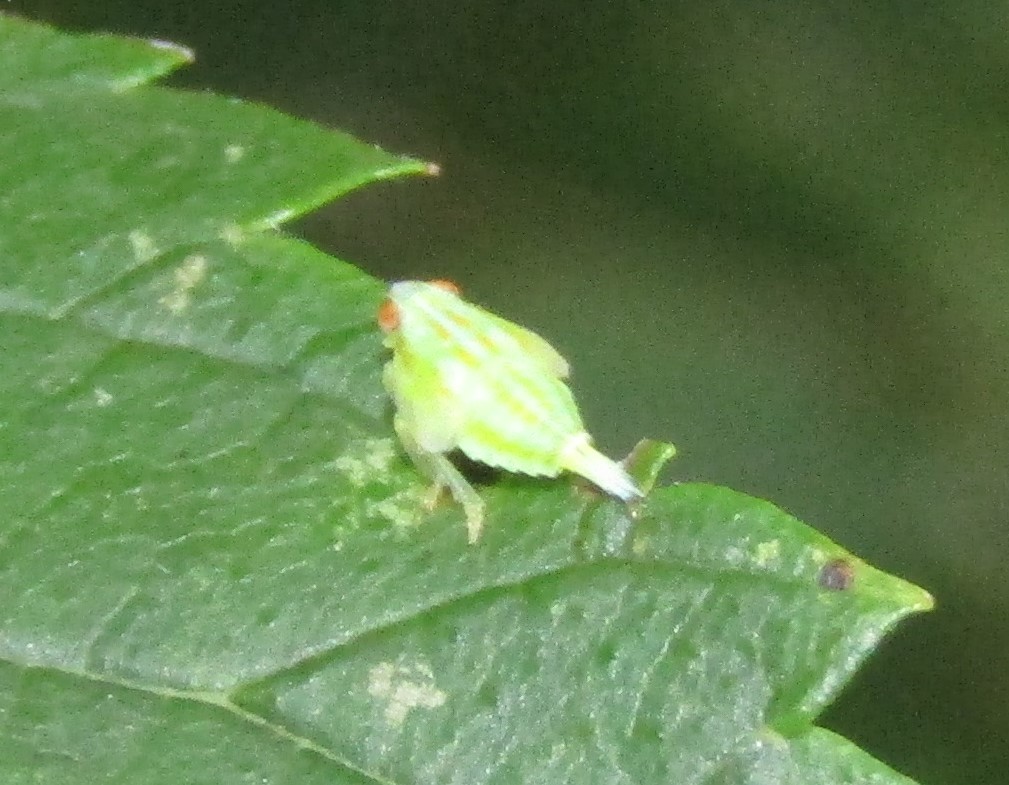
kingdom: Animalia
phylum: Arthropoda
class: Insecta
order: Hemiptera
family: Issidae
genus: Thionia
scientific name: Thionia quinquata
